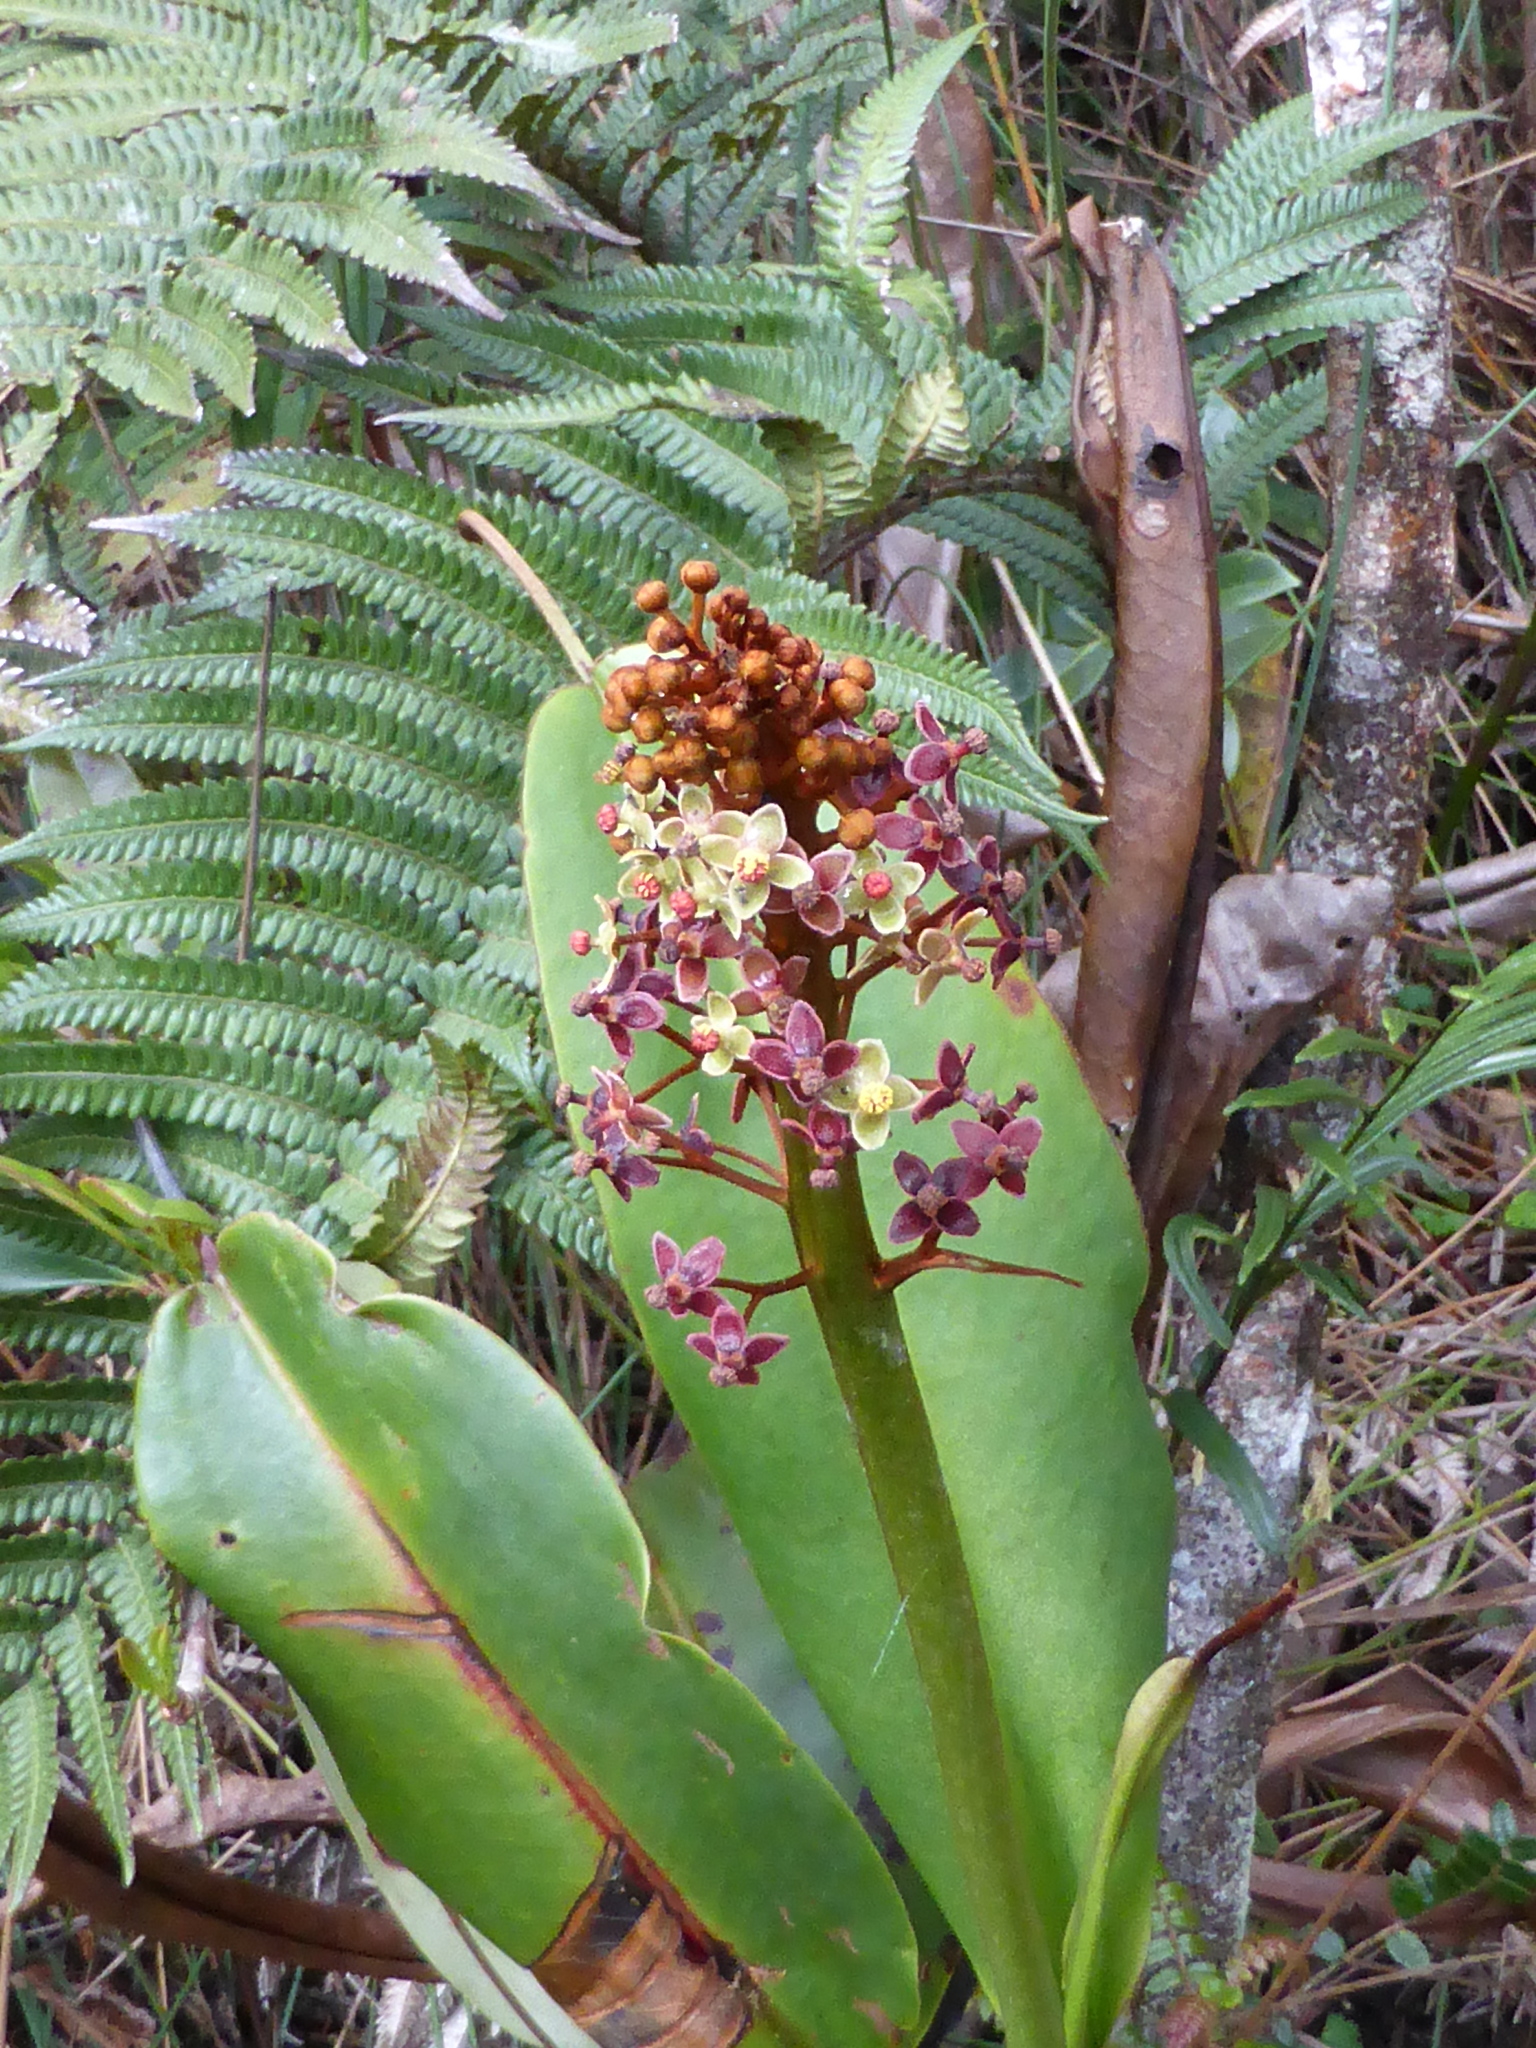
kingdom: Plantae
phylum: Tracheophyta
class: Magnoliopsida
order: Caryophyllales
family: Nepenthaceae
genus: Nepenthes
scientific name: Nepenthes rajah
